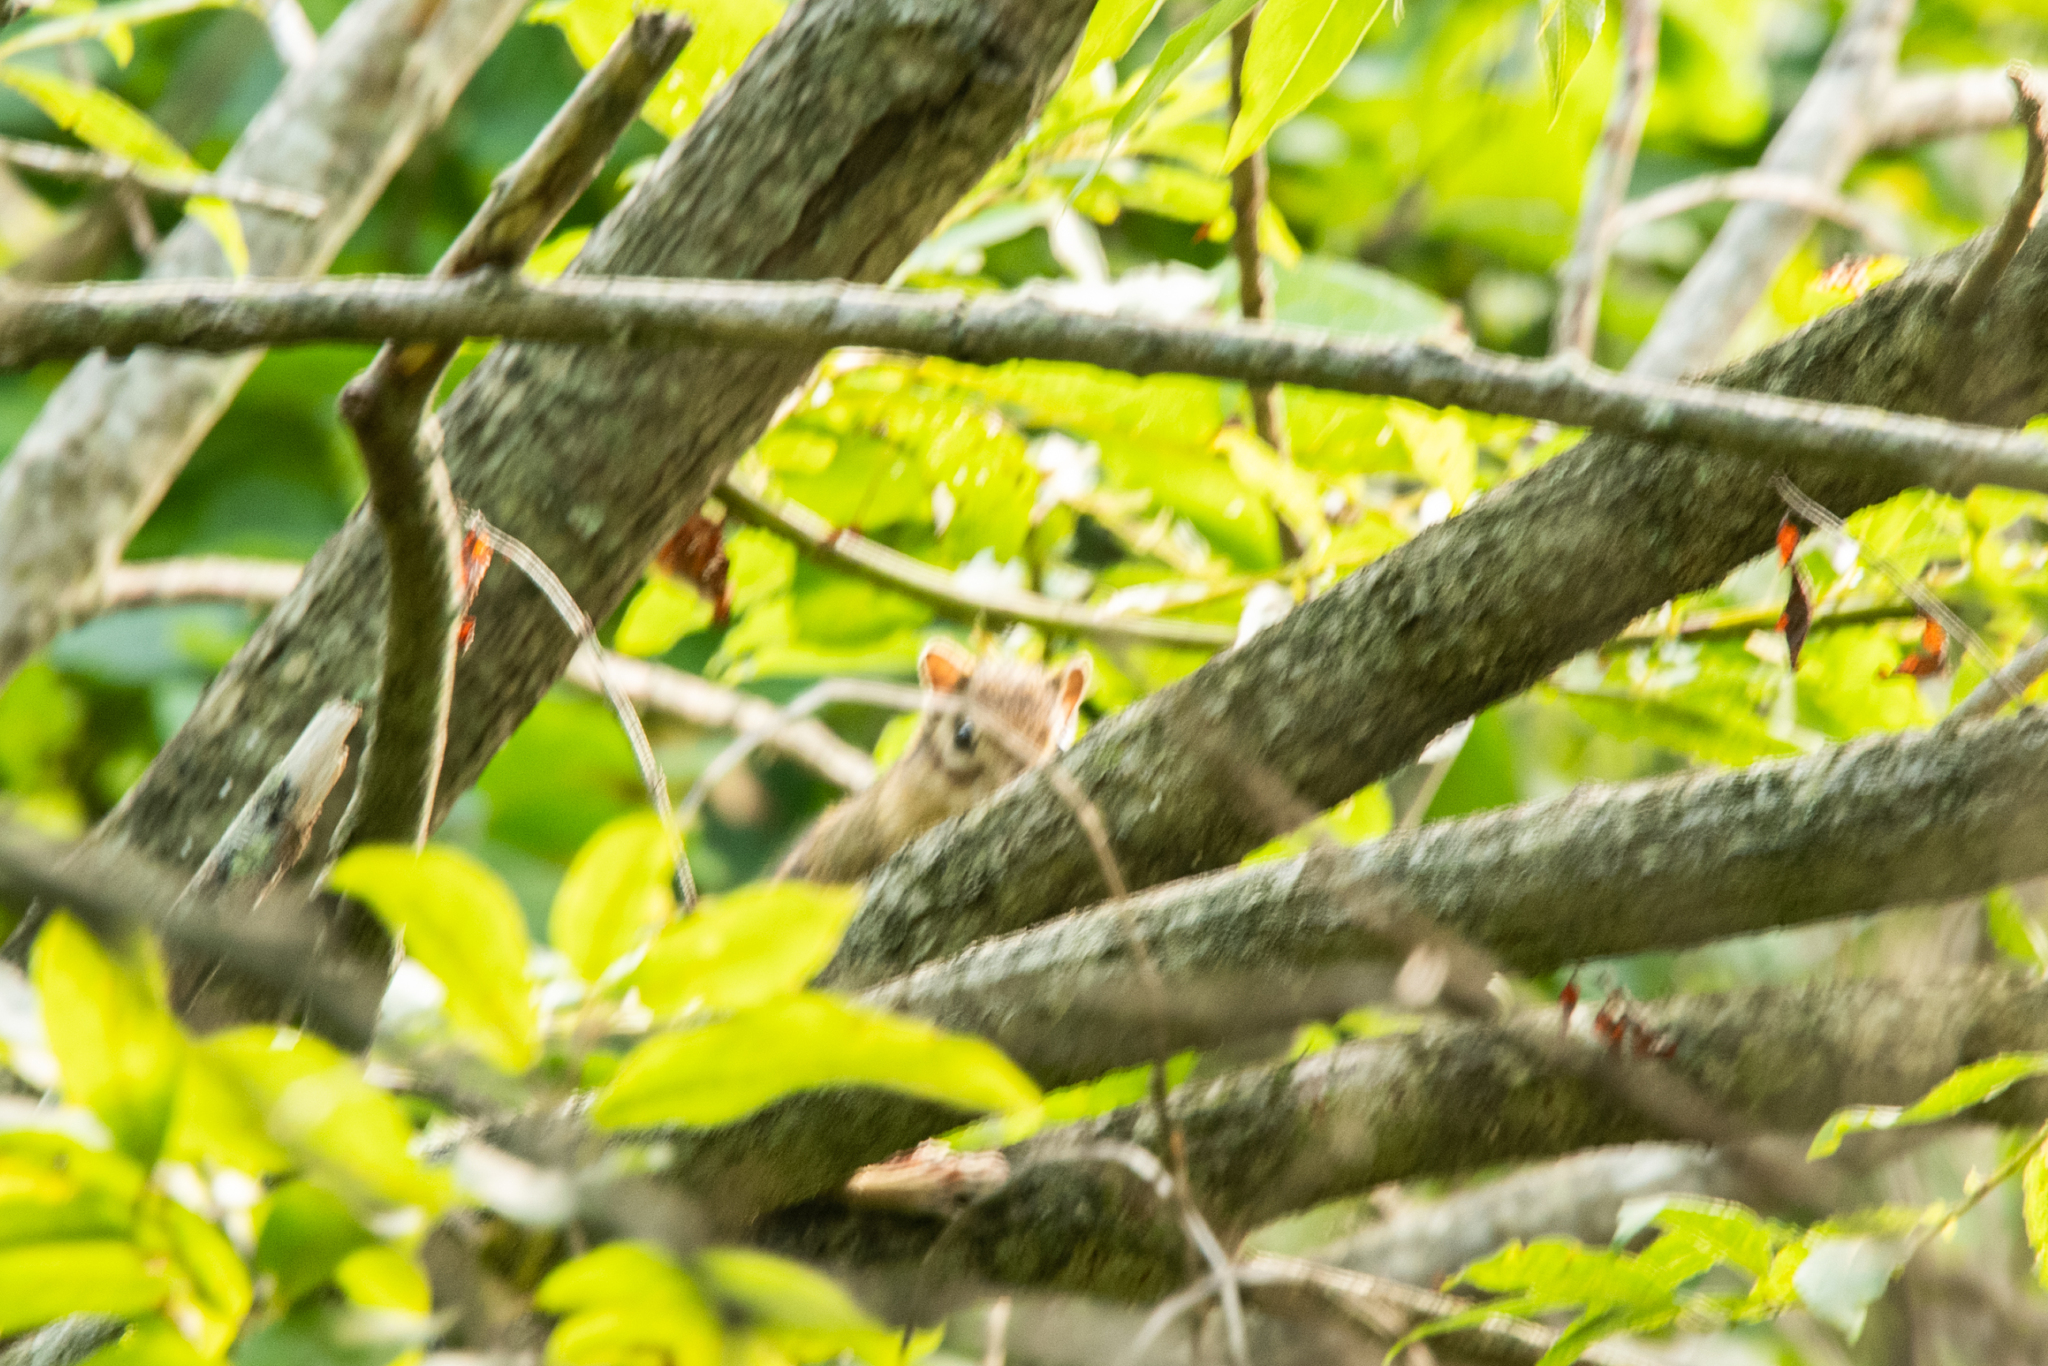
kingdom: Animalia
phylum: Chordata
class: Mammalia
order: Rodentia
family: Sciuridae
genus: Tamias
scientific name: Tamias sibiricus
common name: Siberian chipmunk
